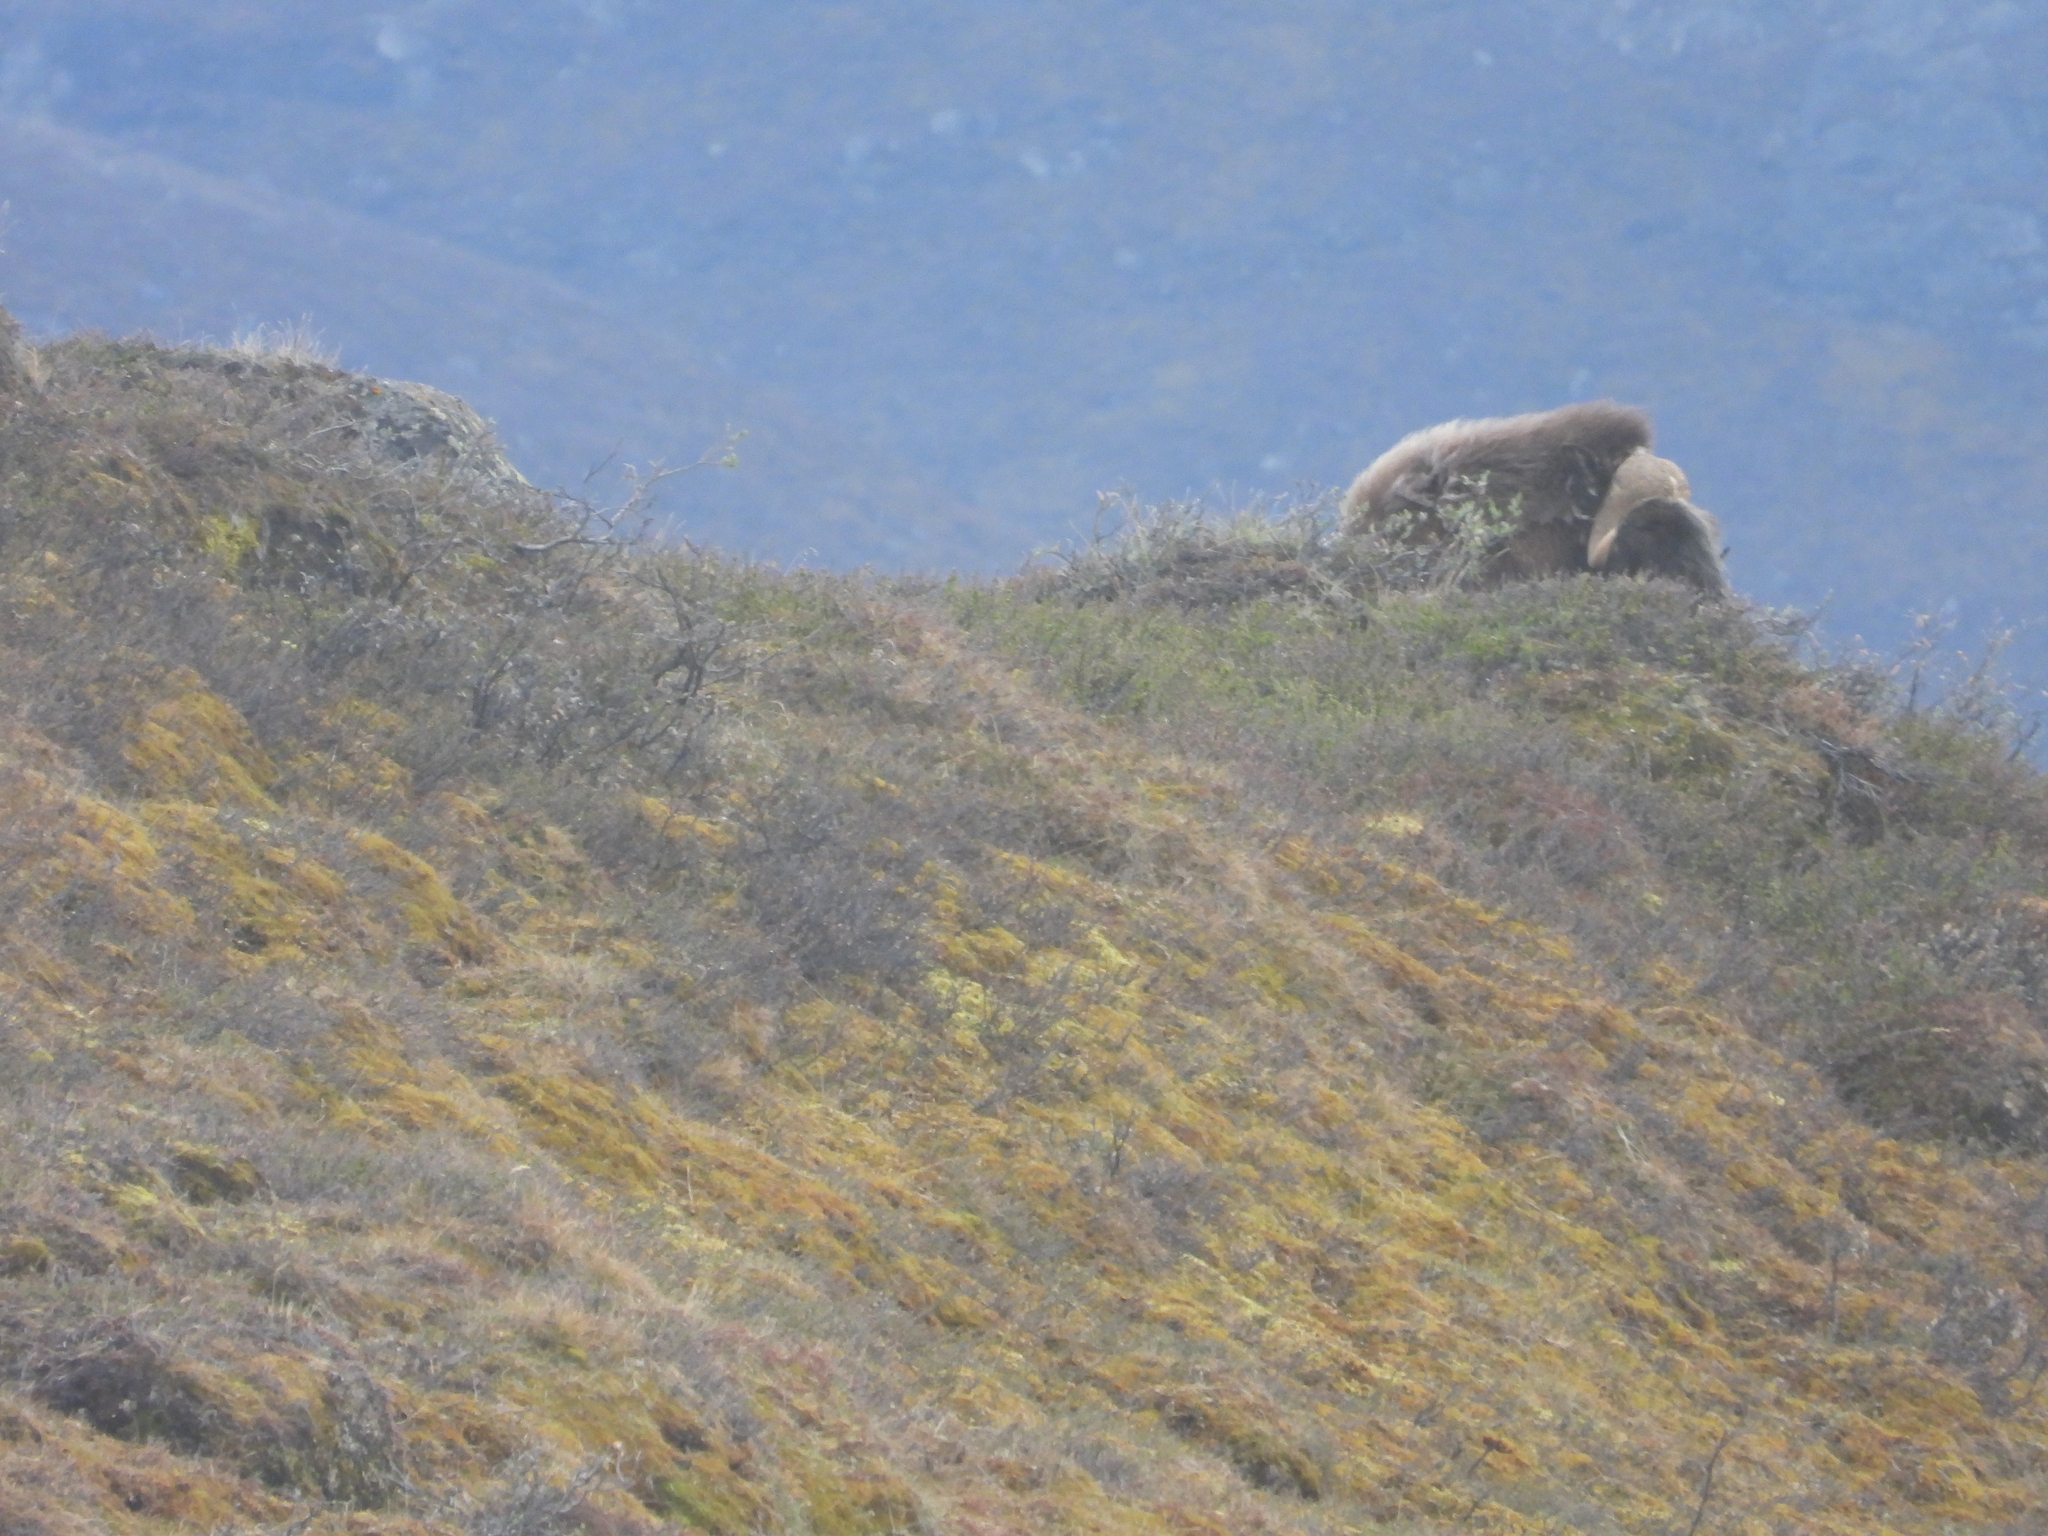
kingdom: Animalia
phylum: Chordata
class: Mammalia
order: Artiodactyla
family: Bovidae
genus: Ovibos
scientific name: Ovibos moschatus
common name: Muskox
